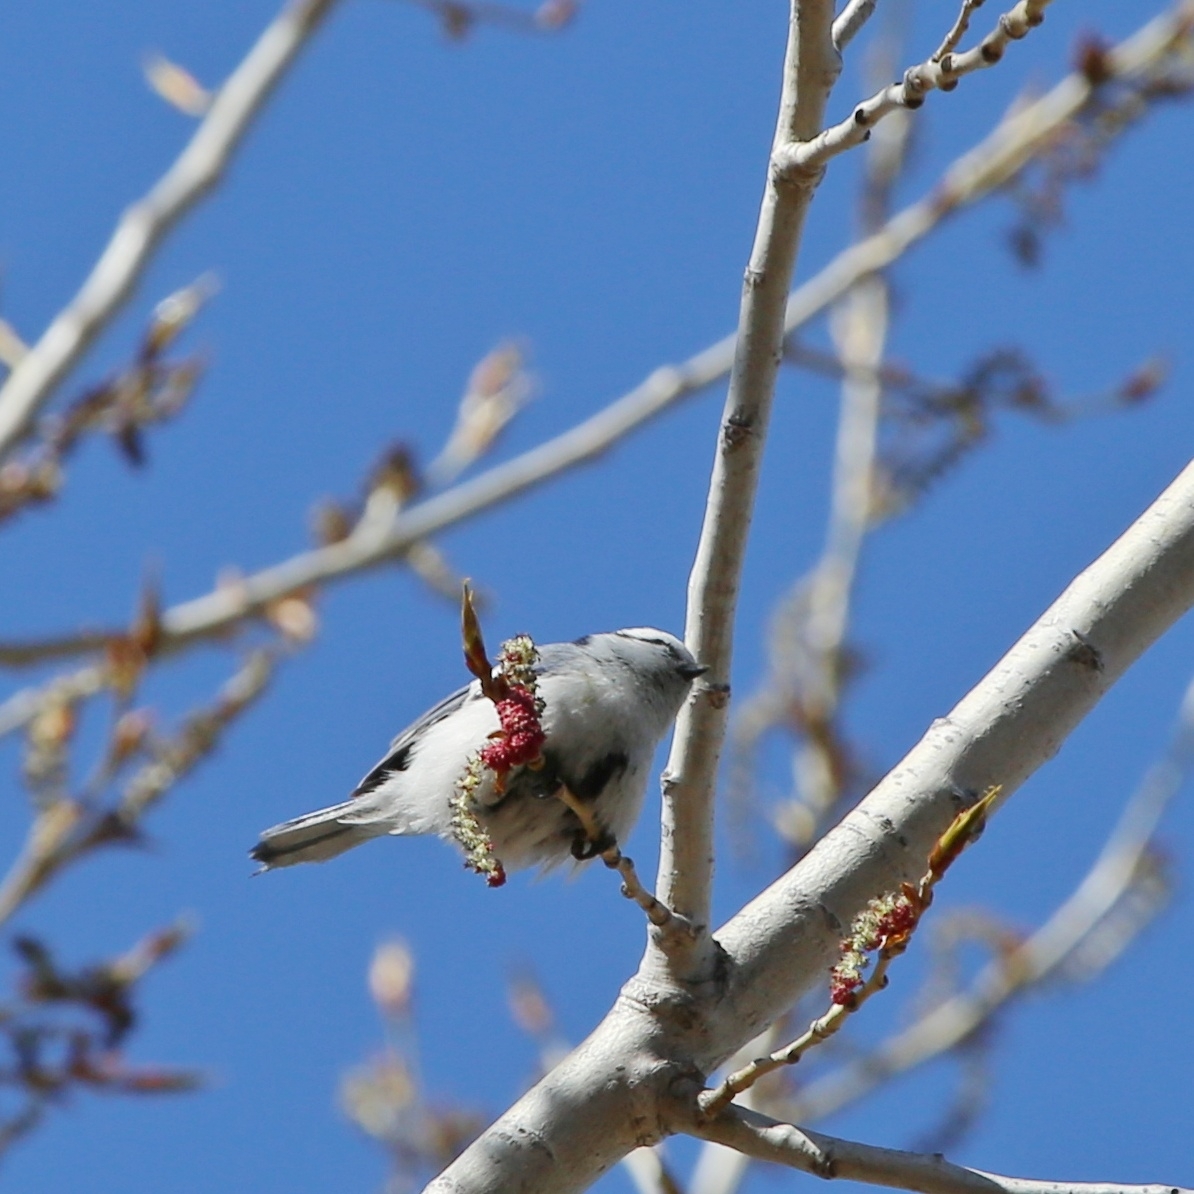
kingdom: Animalia
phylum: Chordata
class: Aves
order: Passeriformes
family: Paridae
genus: Cyanistes
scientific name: Cyanistes cyanus
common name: Azure tit
